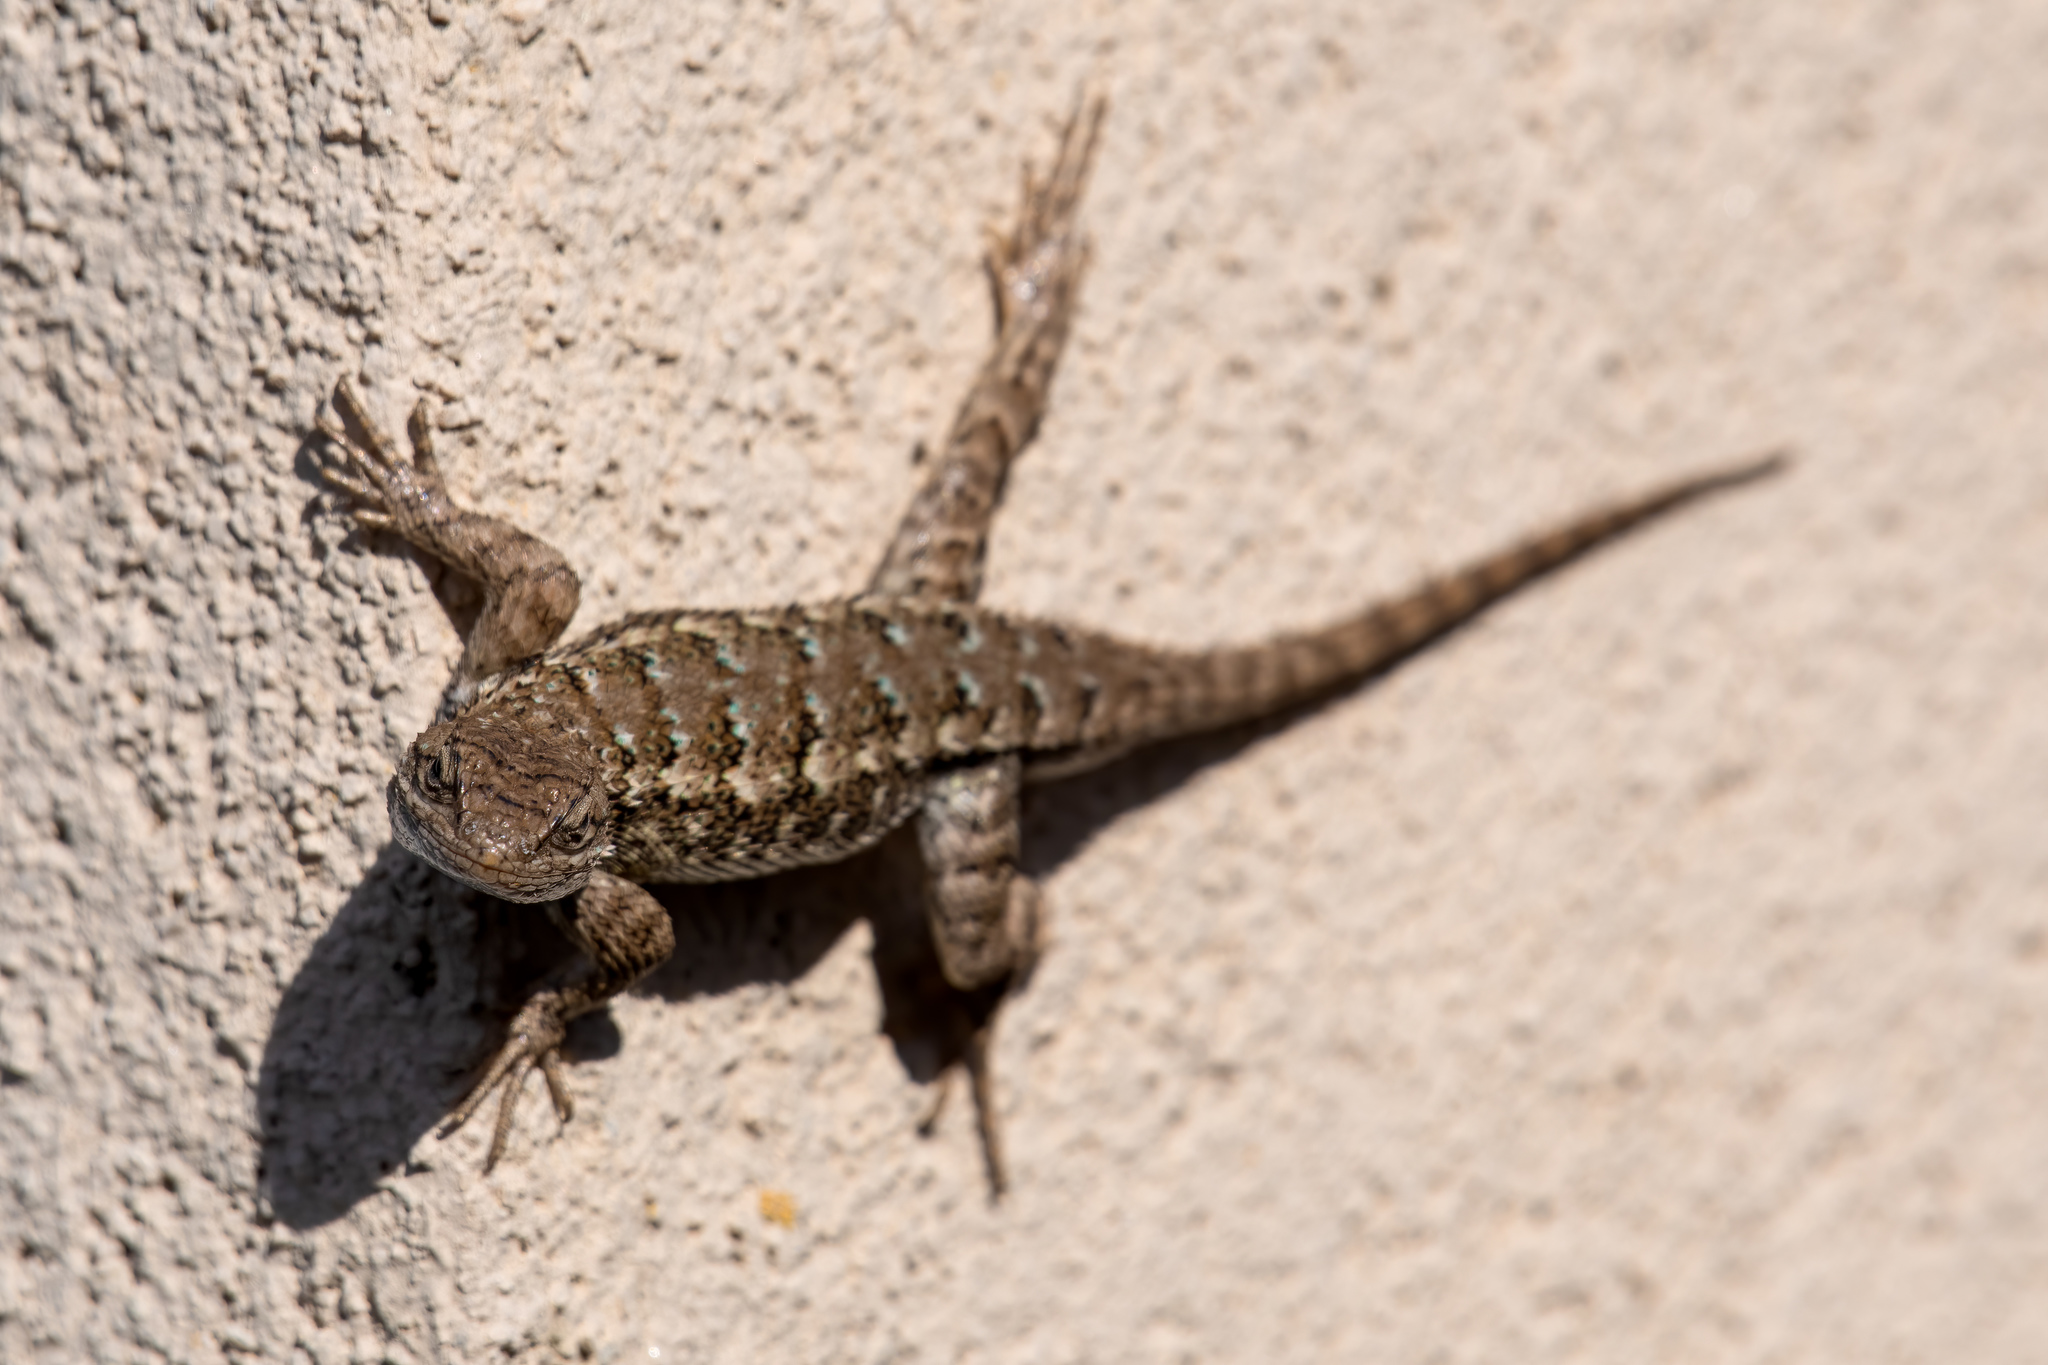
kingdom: Animalia
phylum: Chordata
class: Squamata
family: Phrynosomatidae
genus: Sceloporus
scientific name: Sceloporus occidentalis
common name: Western fence lizard
